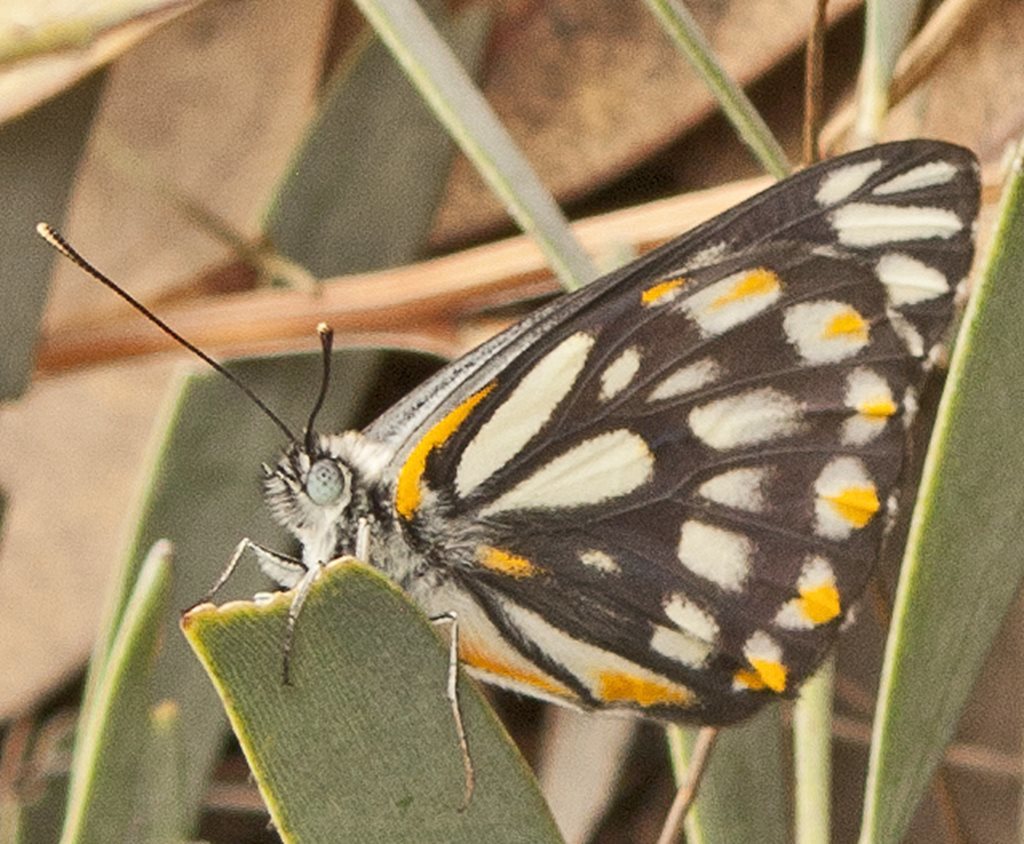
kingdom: Animalia
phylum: Arthropoda
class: Insecta
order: Lepidoptera
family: Pieridae
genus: Belenois
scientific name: Belenois java
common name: Caper white
